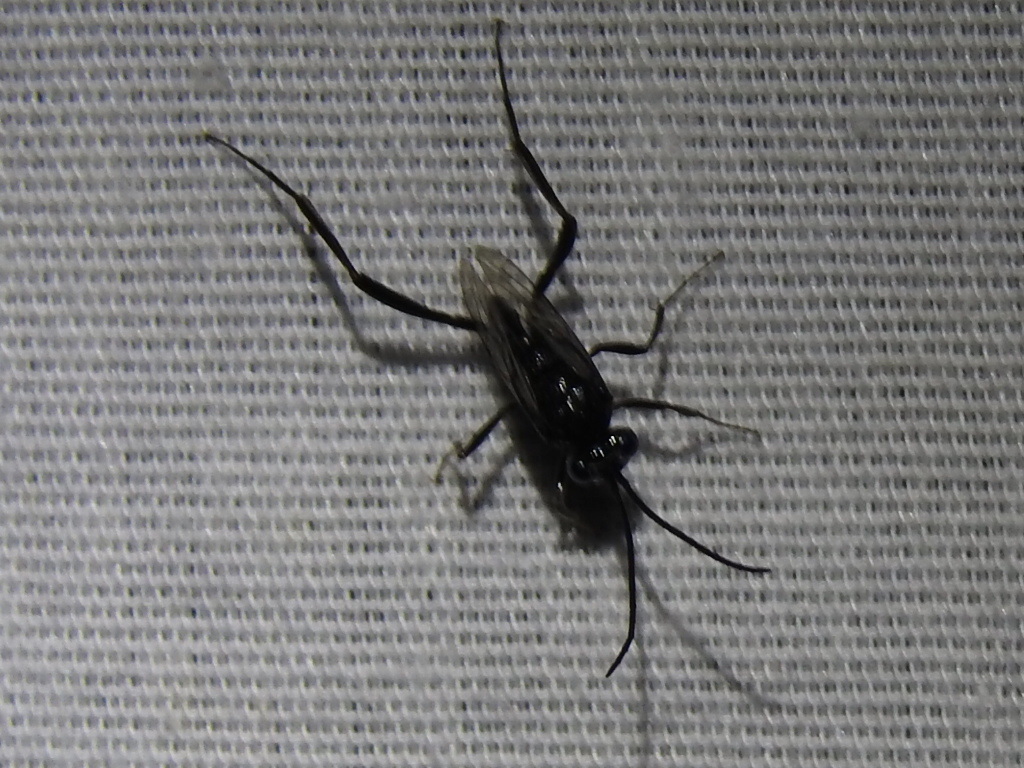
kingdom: Animalia
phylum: Arthropoda
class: Insecta
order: Hymenoptera
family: Evaniidae
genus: Evania
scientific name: Evania appendigaster
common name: Ensign wasp
